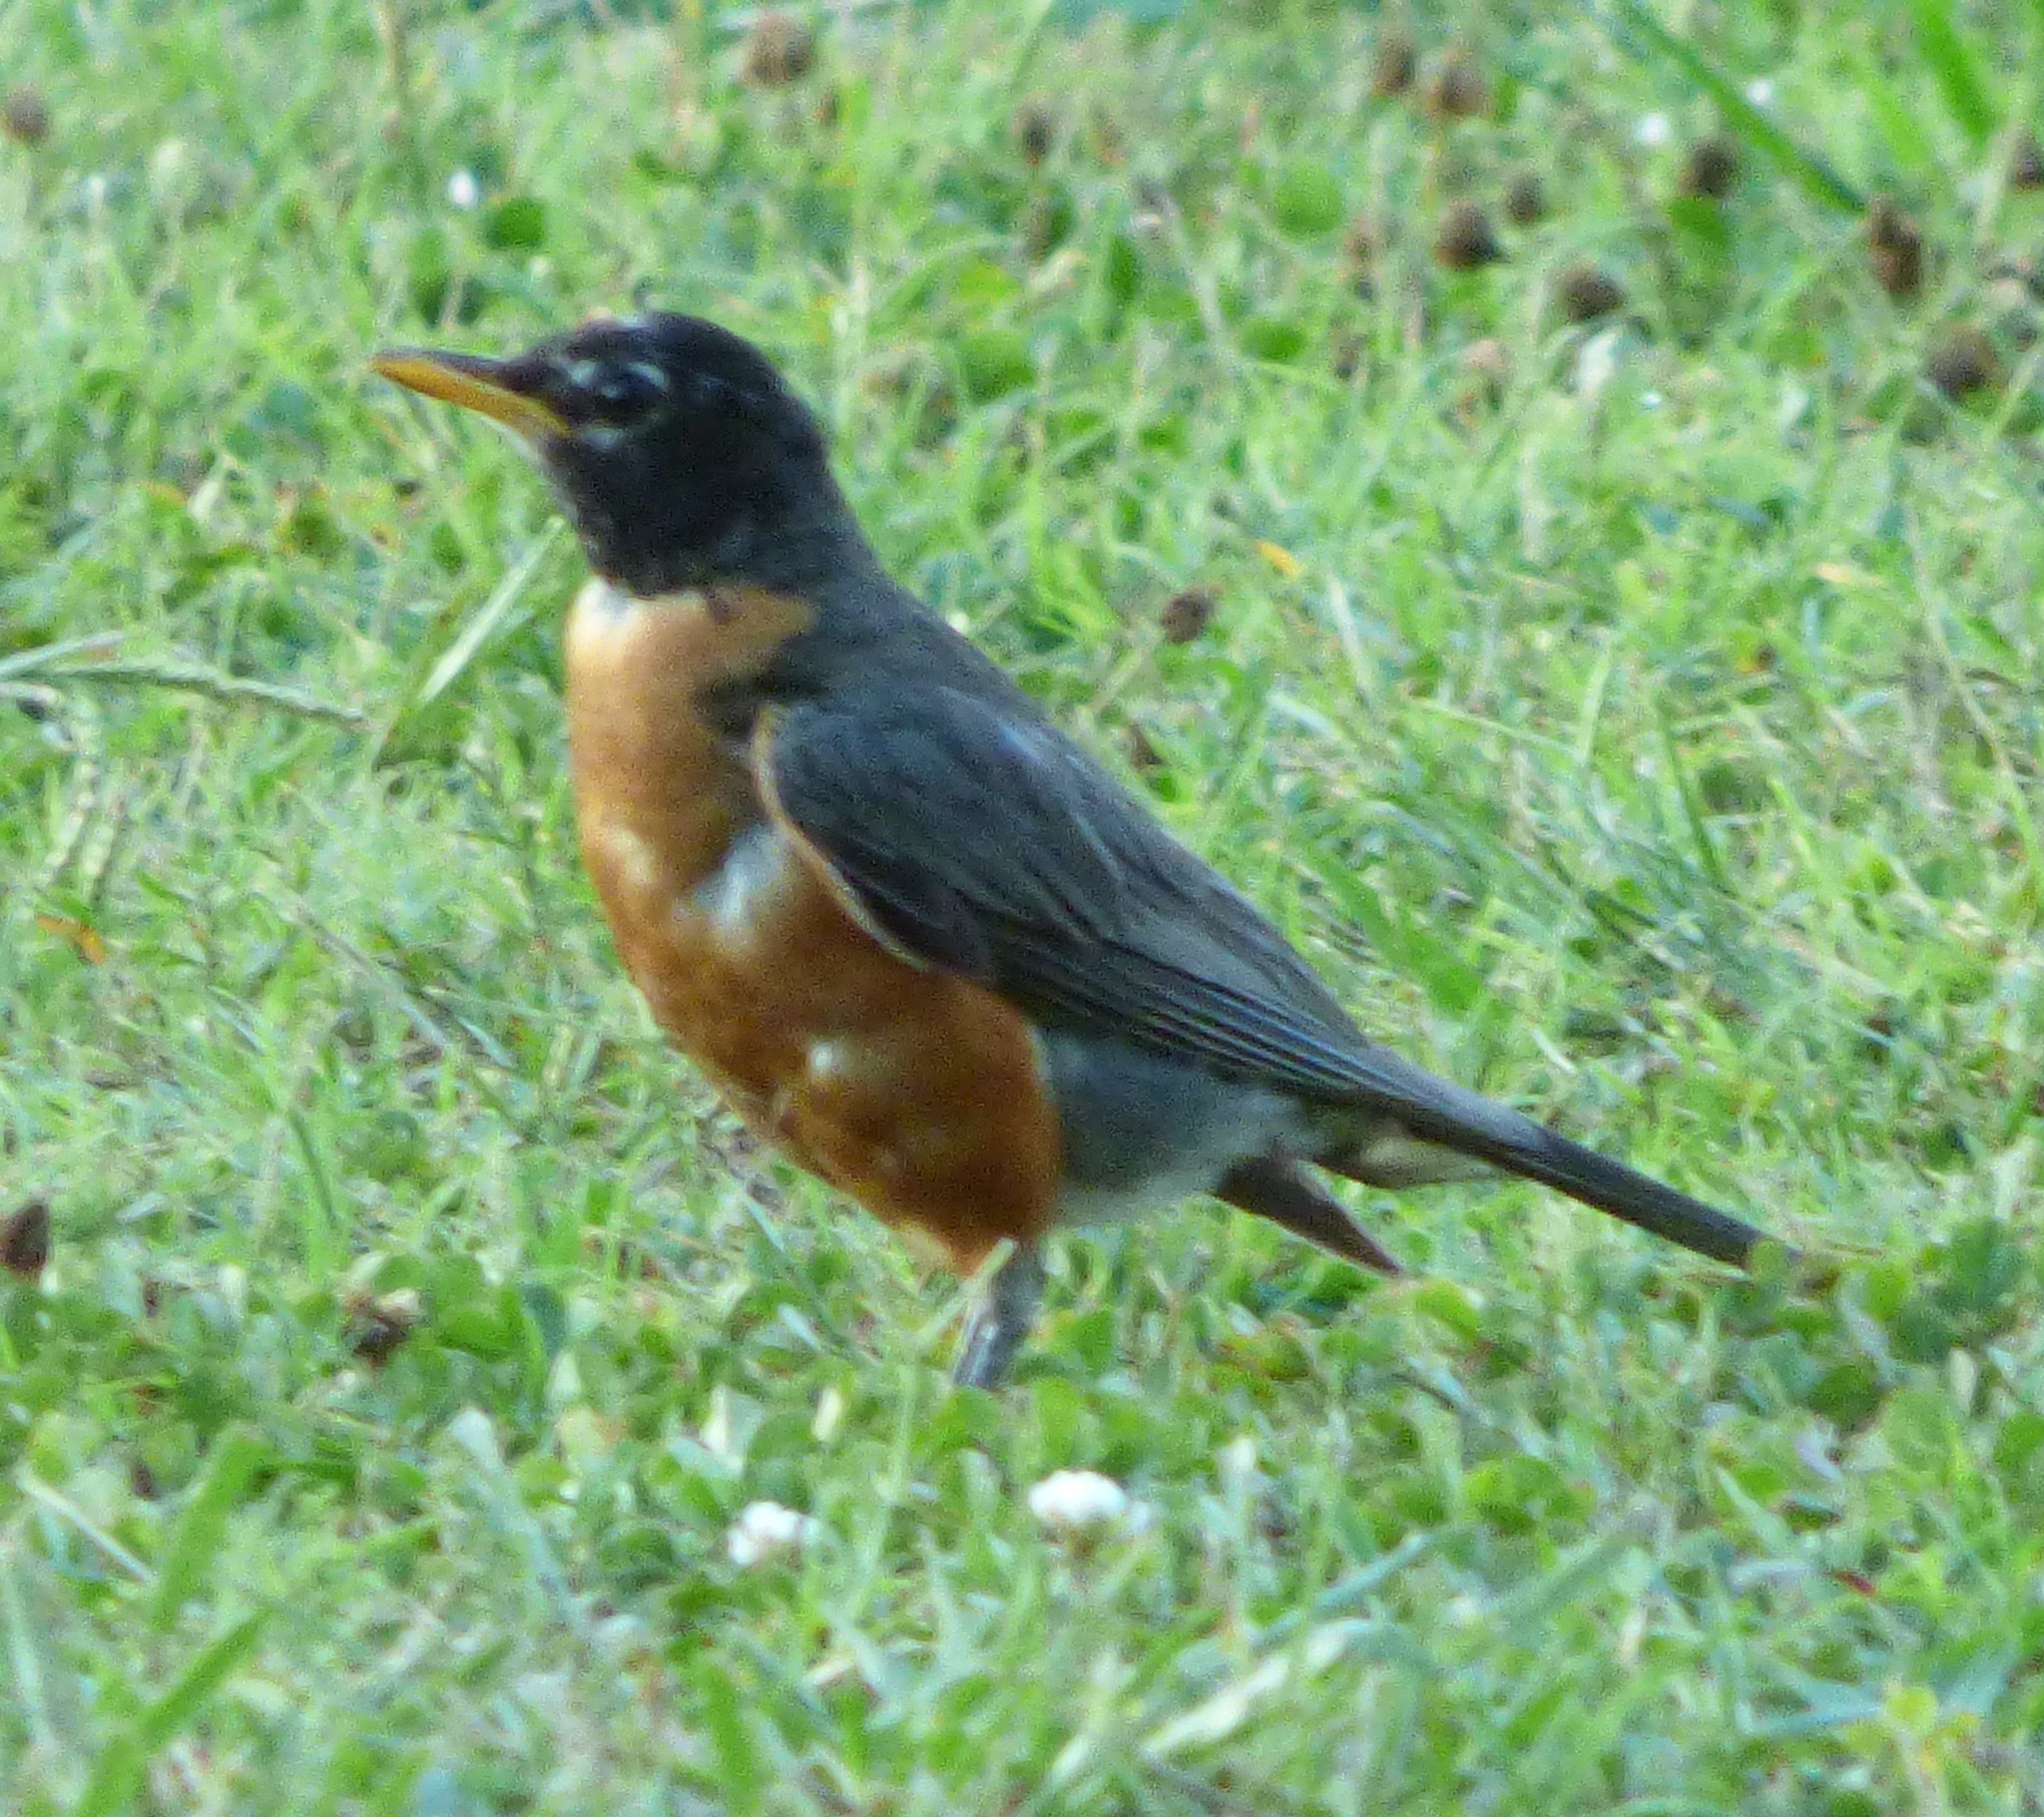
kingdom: Animalia
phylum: Chordata
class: Aves
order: Passeriformes
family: Turdidae
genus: Turdus
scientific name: Turdus migratorius
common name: American robin
